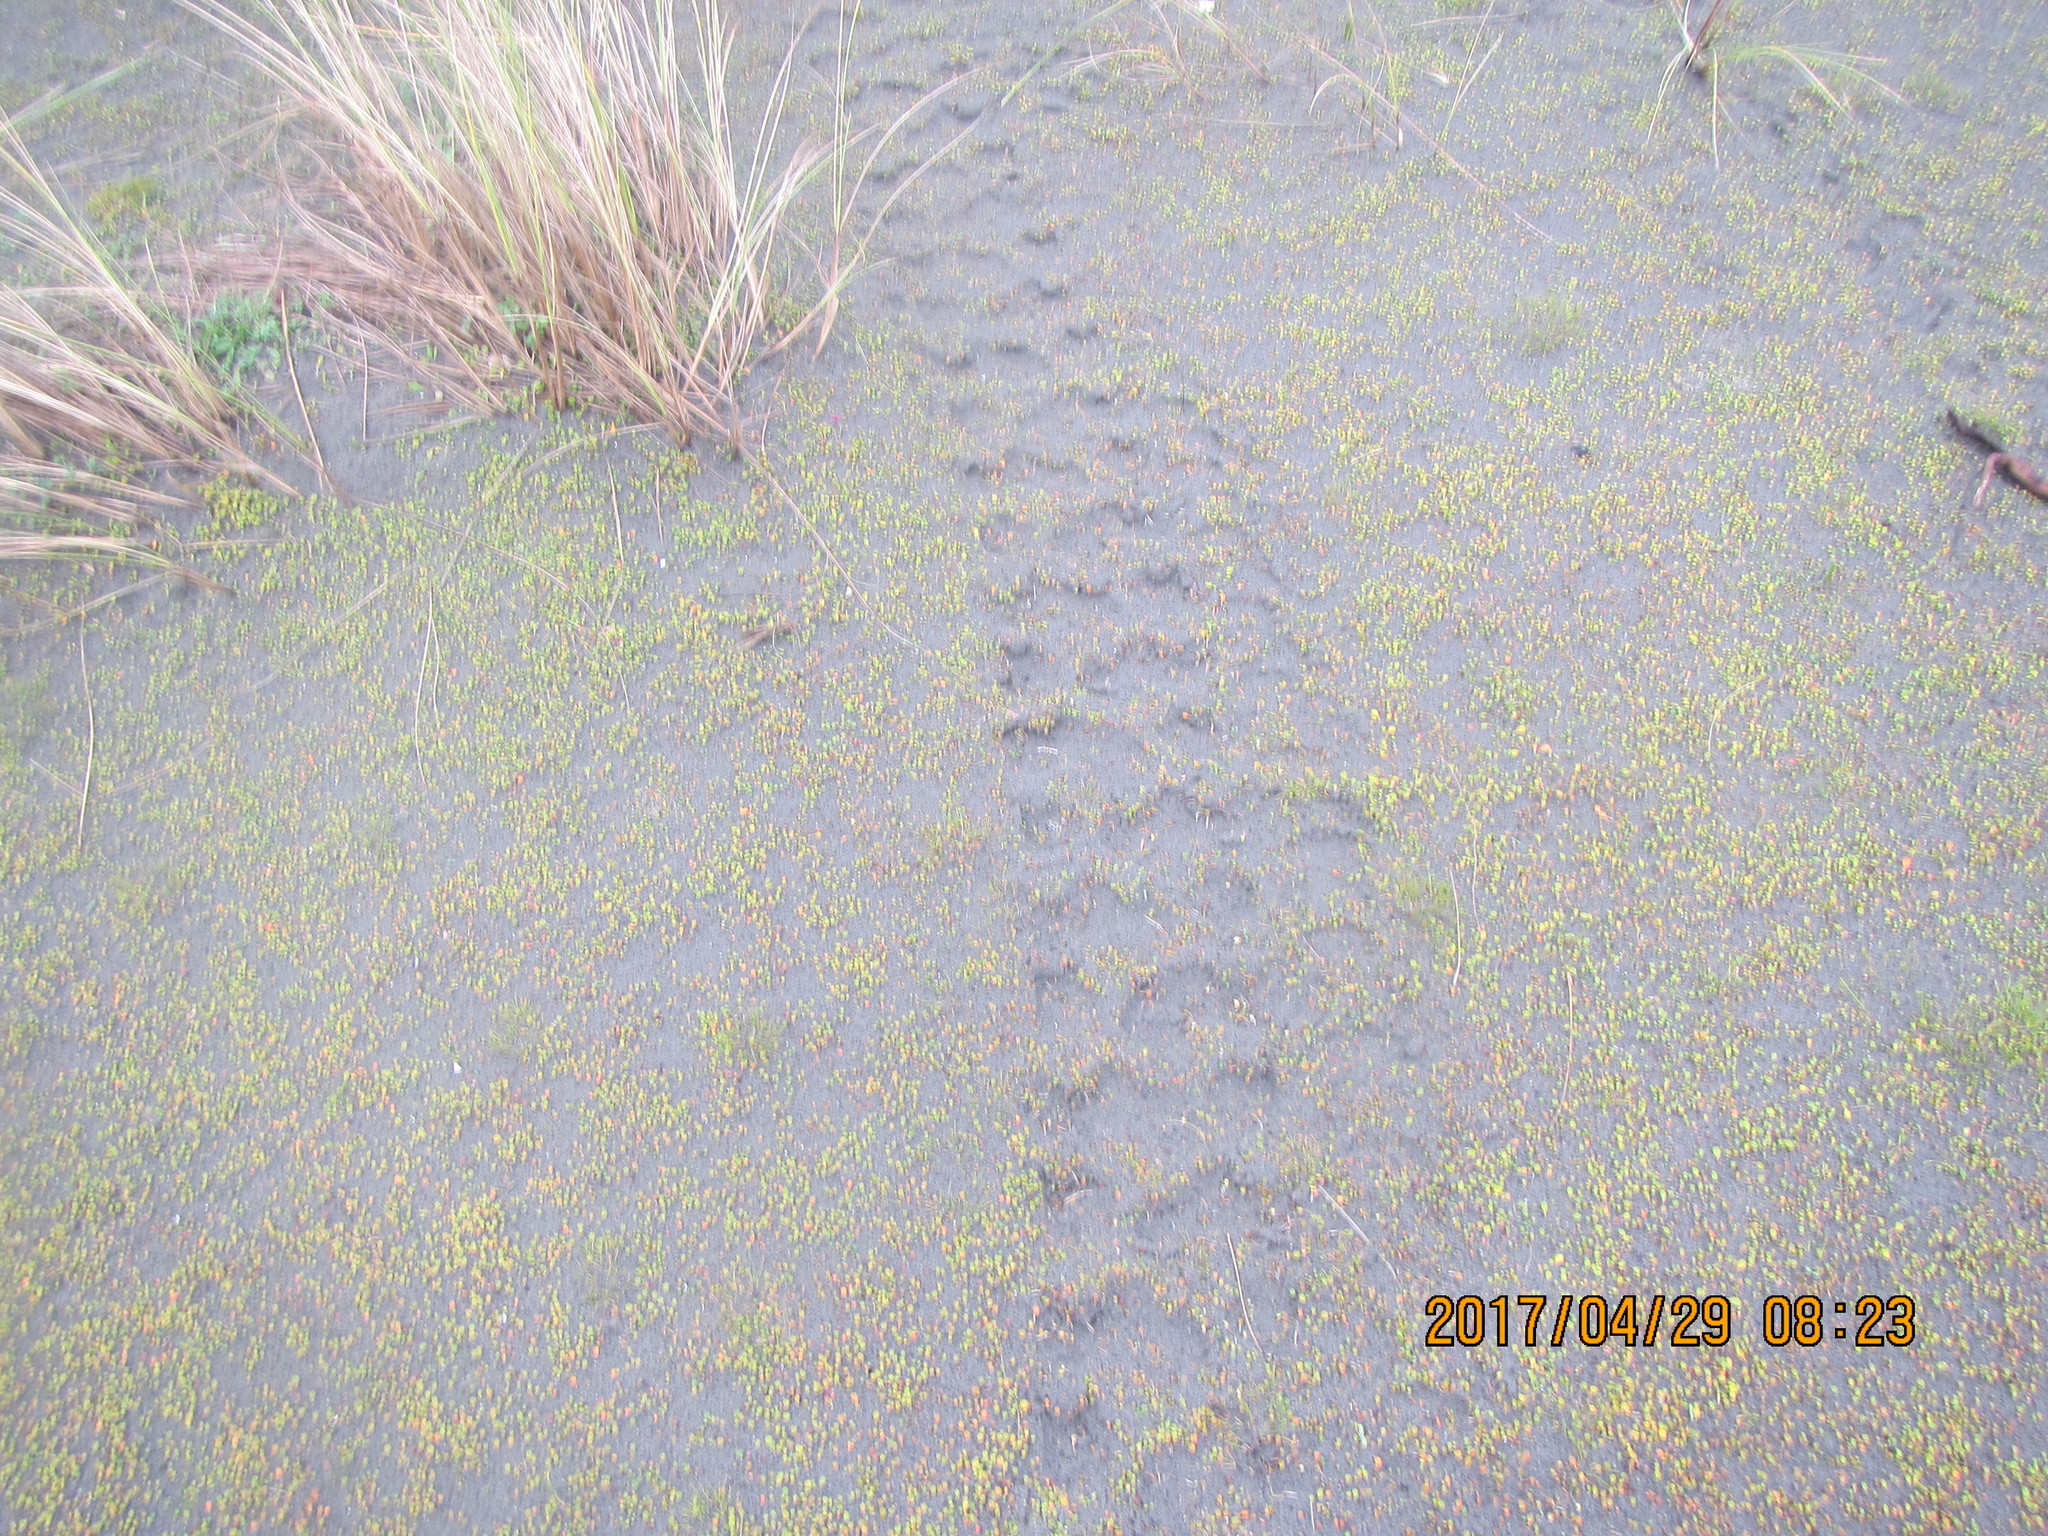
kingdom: Plantae
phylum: Tracheophyta
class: Magnoliopsida
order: Asterales
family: Goodeniaceae
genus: Goodenia
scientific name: Goodenia heenanii
